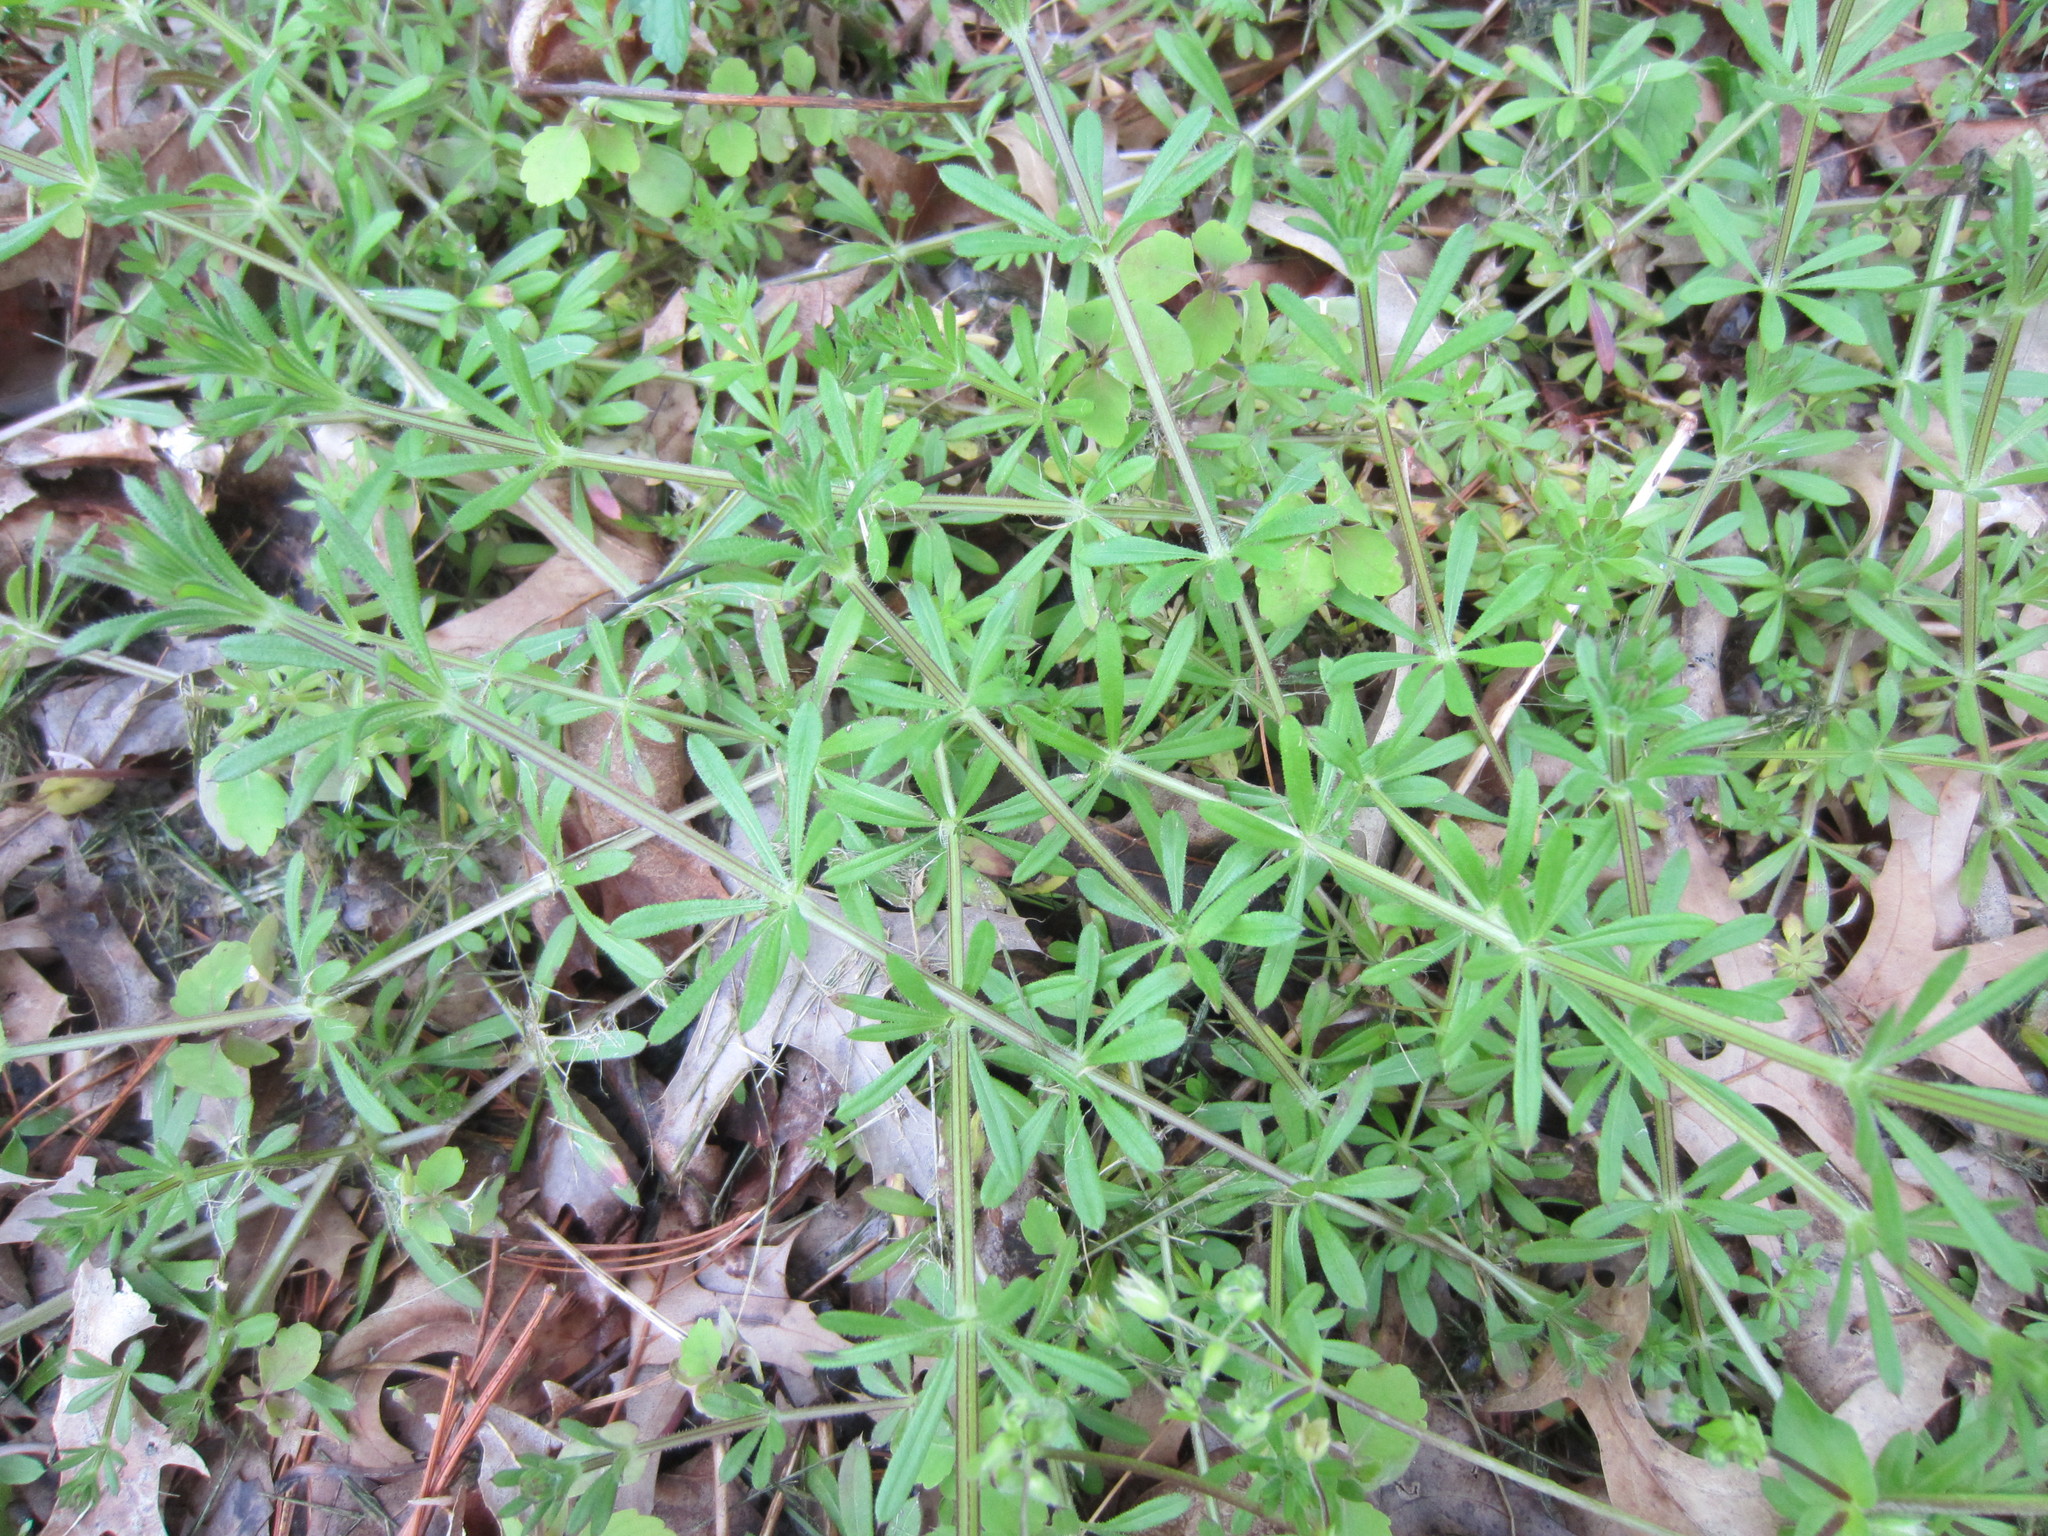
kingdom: Plantae
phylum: Tracheophyta
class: Magnoliopsida
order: Gentianales
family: Rubiaceae
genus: Galium
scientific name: Galium aparine
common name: Cleavers
